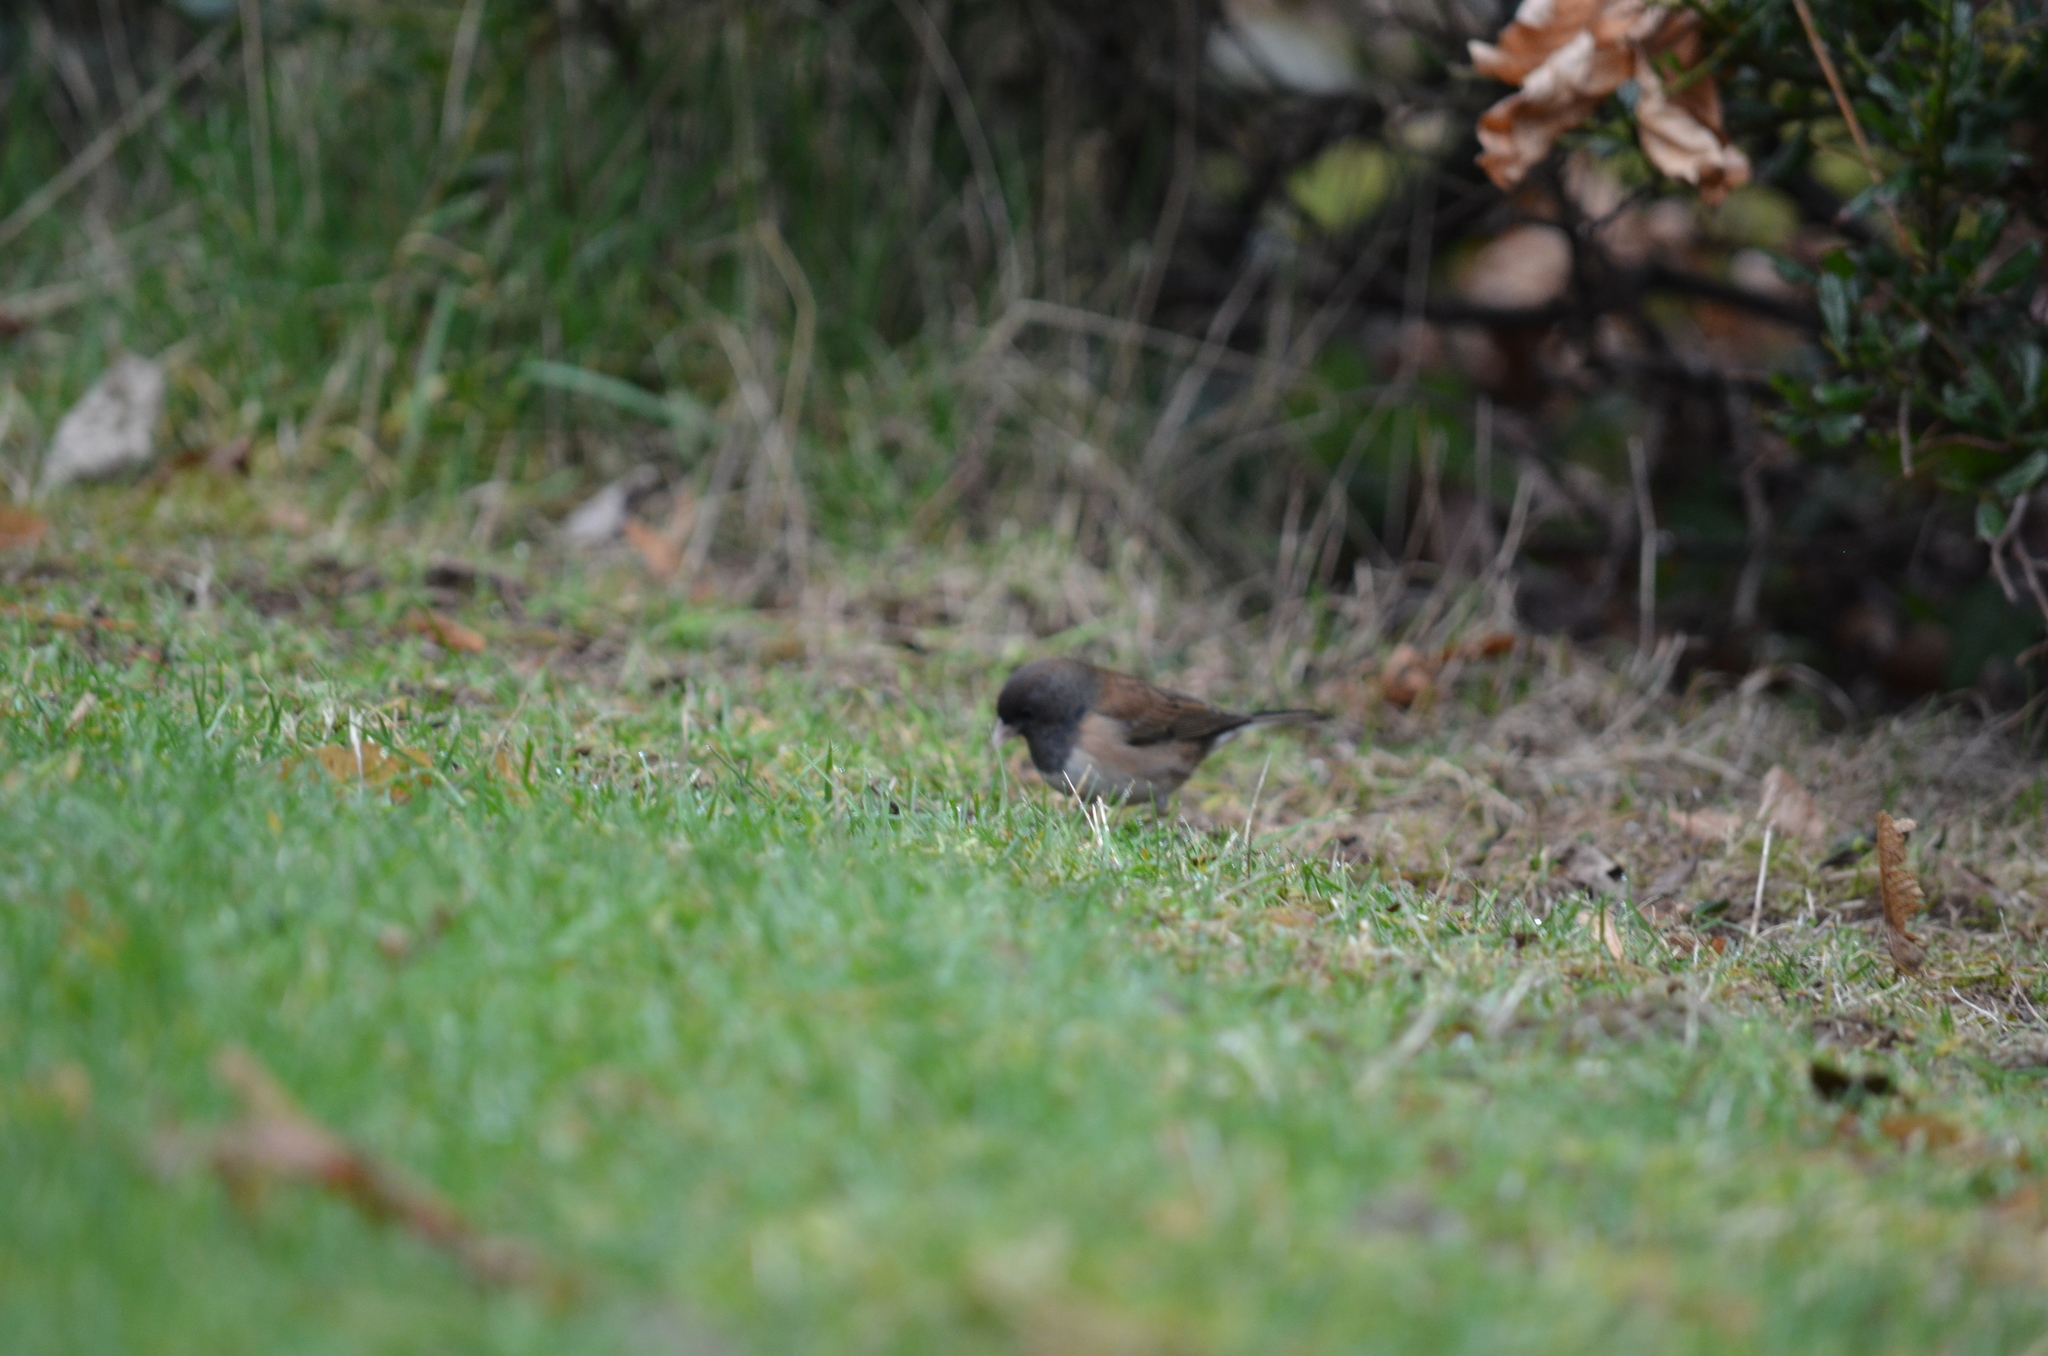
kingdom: Animalia
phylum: Chordata
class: Aves
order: Passeriformes
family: Passerellidae
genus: Junco
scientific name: Junco hyemalis
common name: Dark-eyed junco
